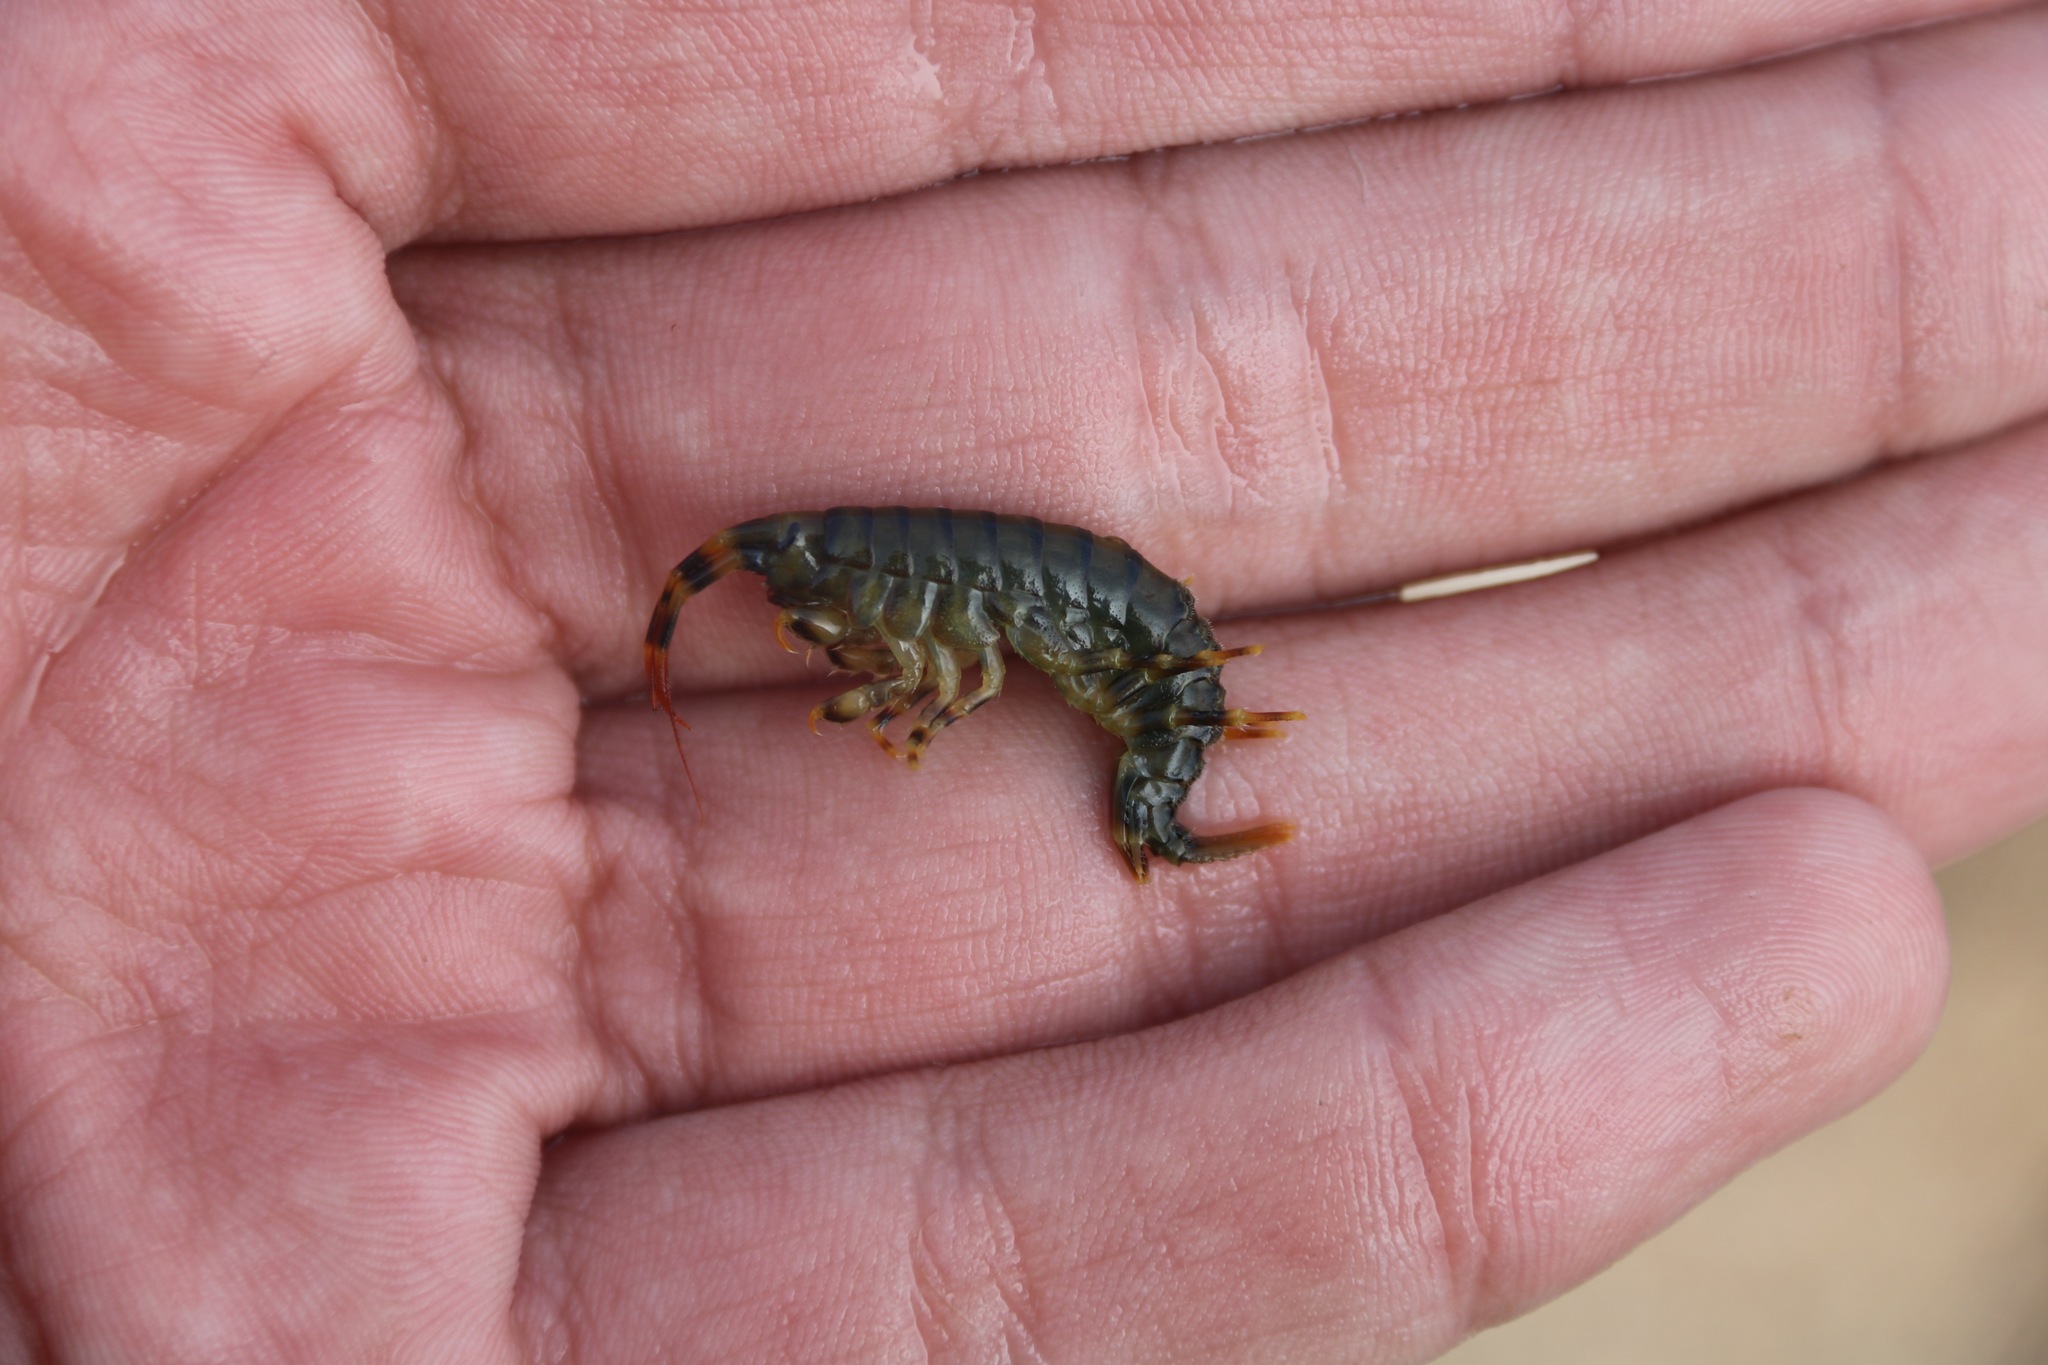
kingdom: Animalia
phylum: Arthropoda
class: Malacostraca
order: Amphipoda
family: Eulimnogammaridae
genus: Eulimnogammarus
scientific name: Eulimnogammarus verrucosus
